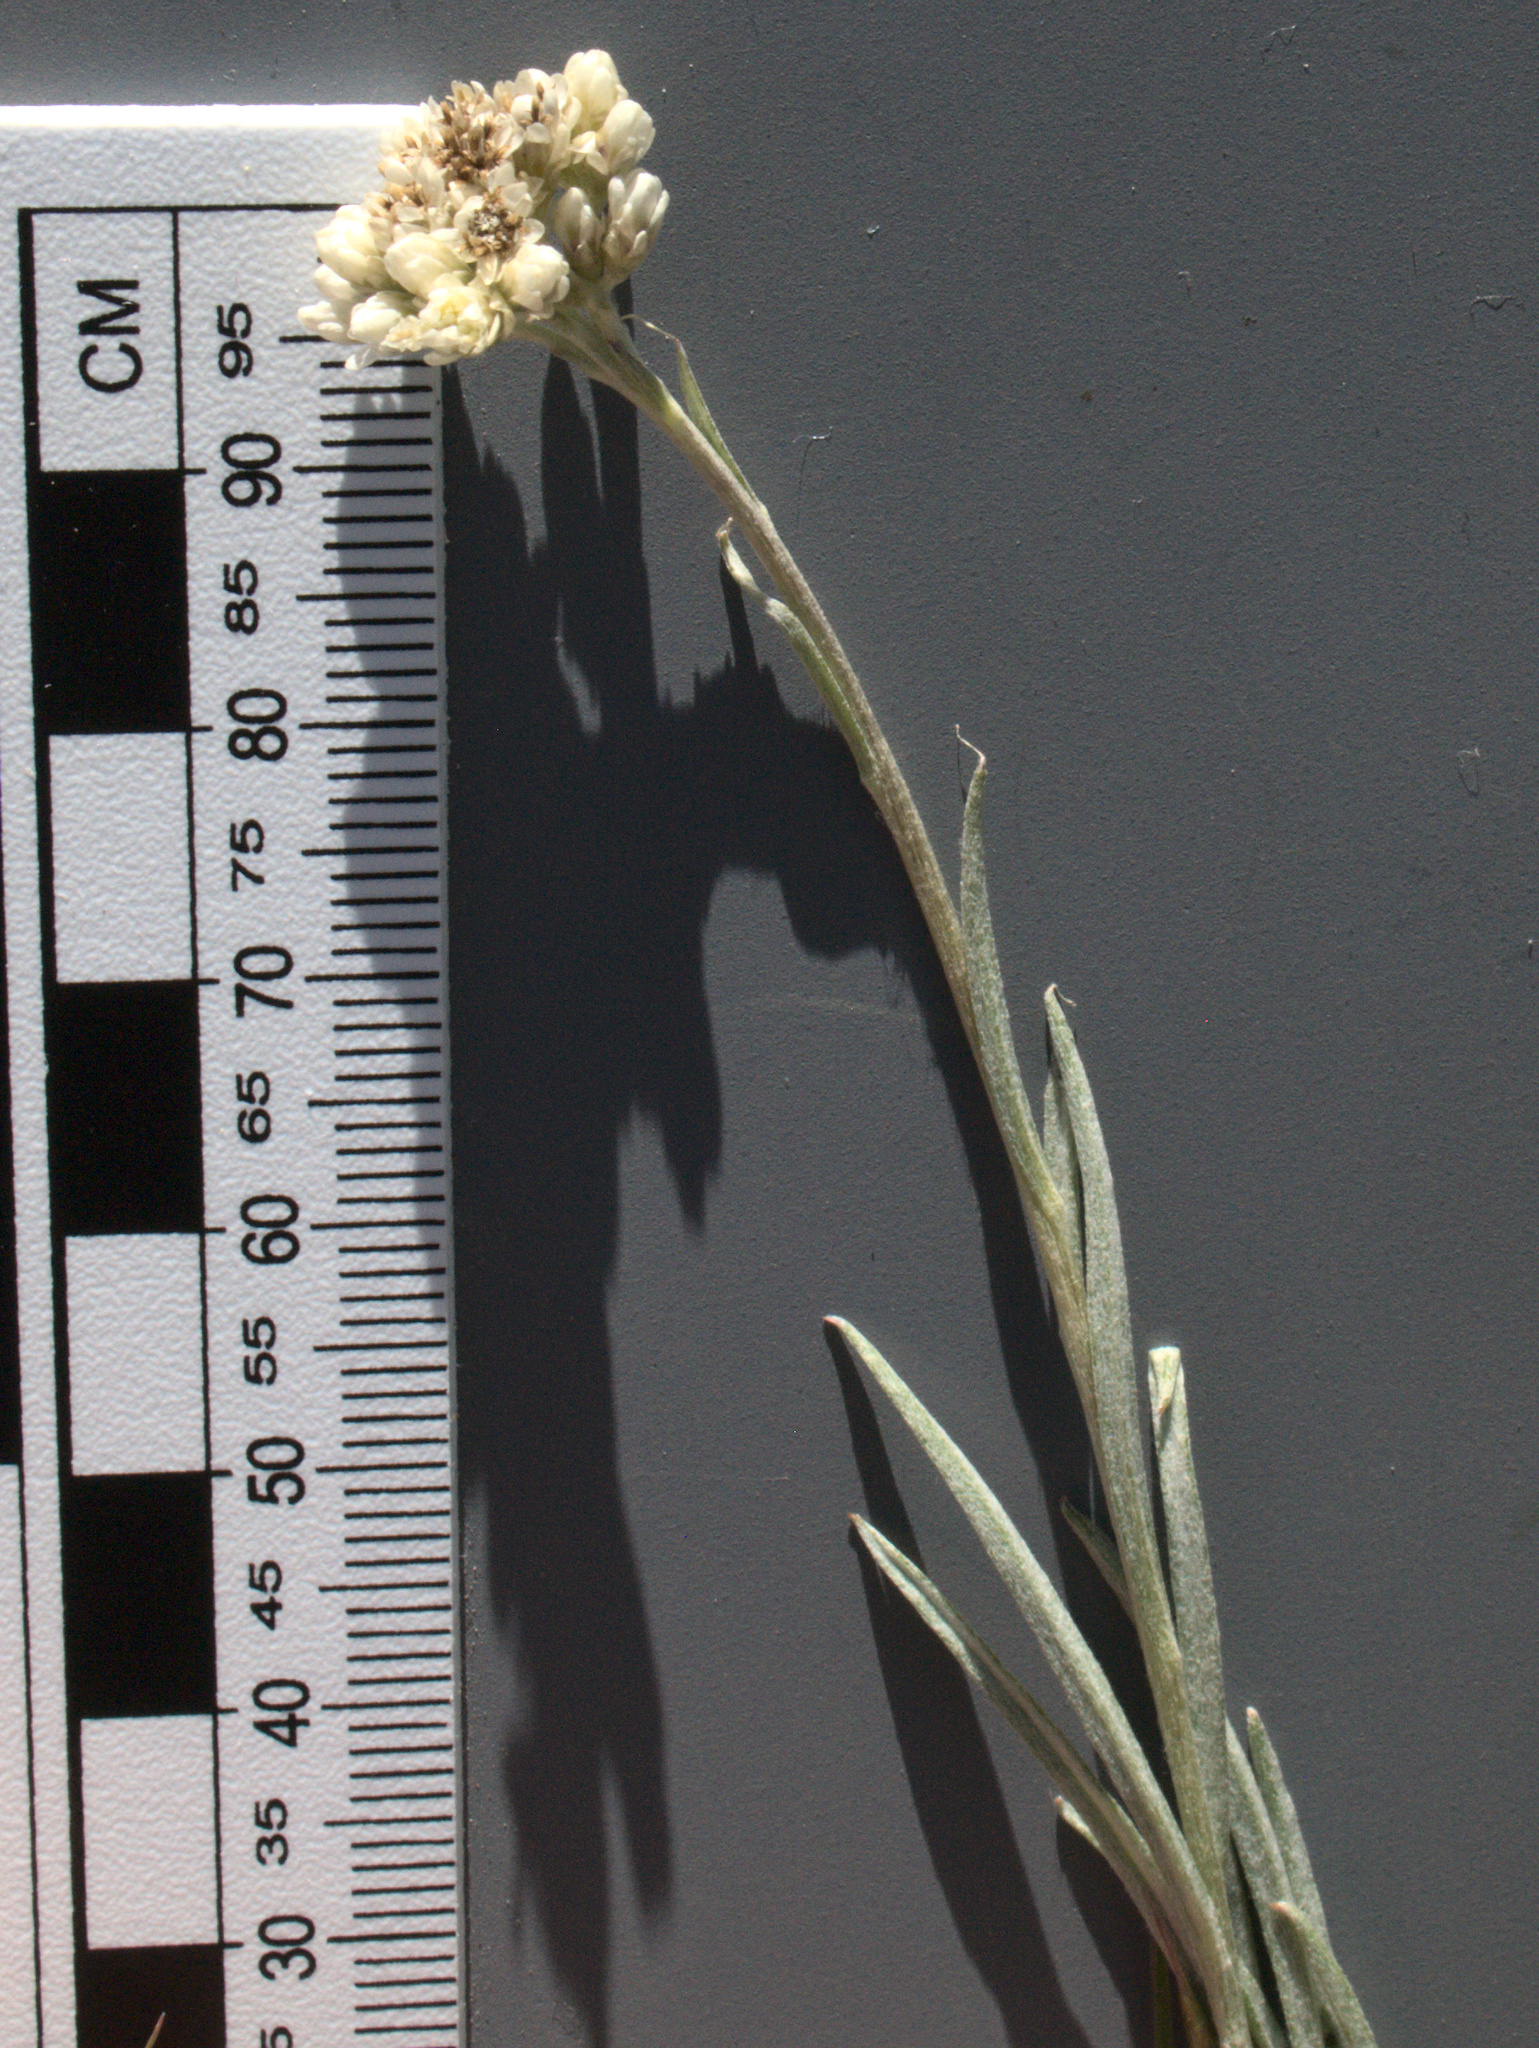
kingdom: Plantae
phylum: Tracheophyta
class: Magnoliopsida
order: Asterales
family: Asteraceae
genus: Antennaria
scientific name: Antennaria luzuloides
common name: Rush pussytoes
